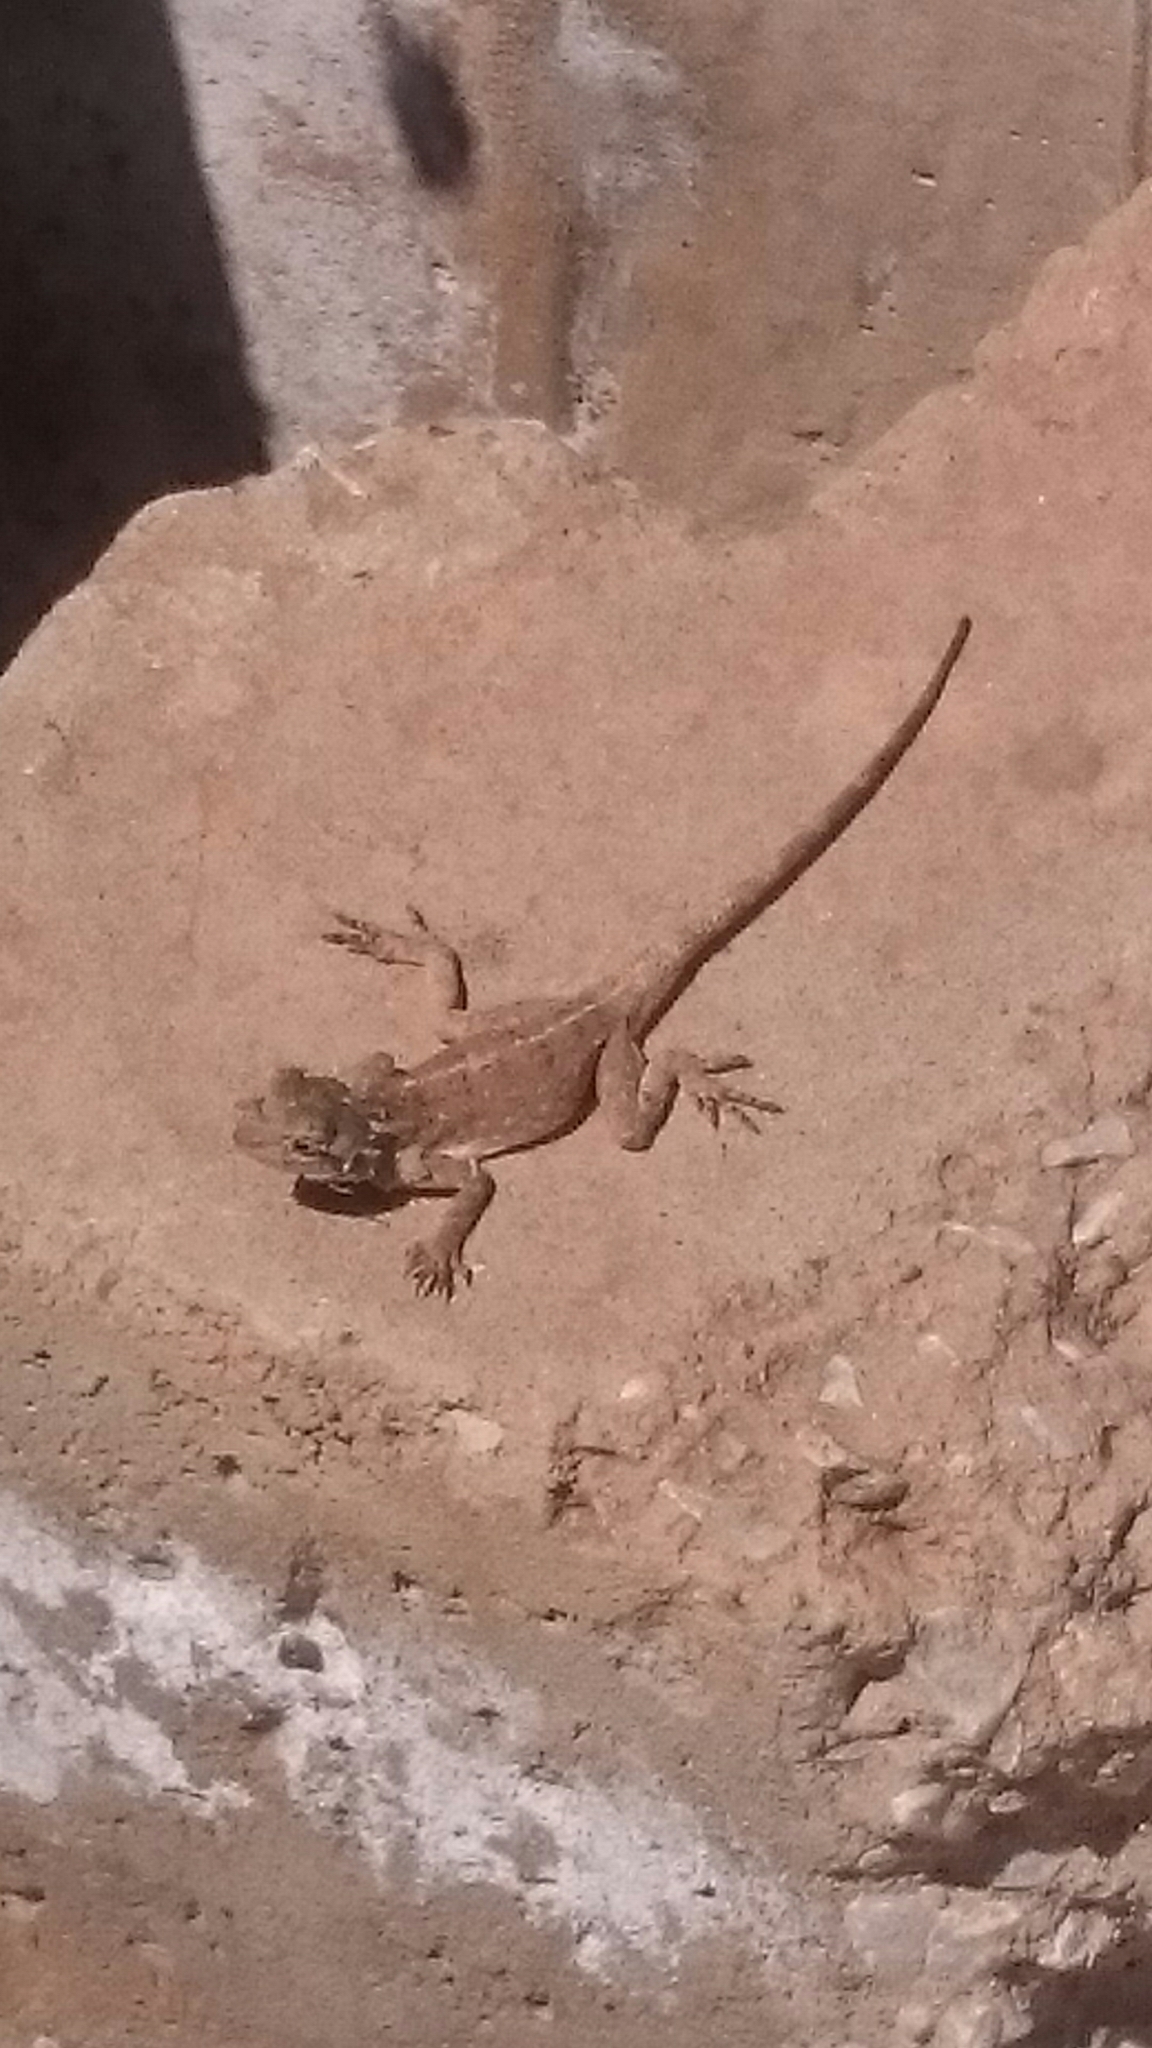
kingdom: Animalia
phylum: Chordata
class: Squamata
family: Agamidae
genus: Agama
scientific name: Agama impalearis
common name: Bibron's agama
